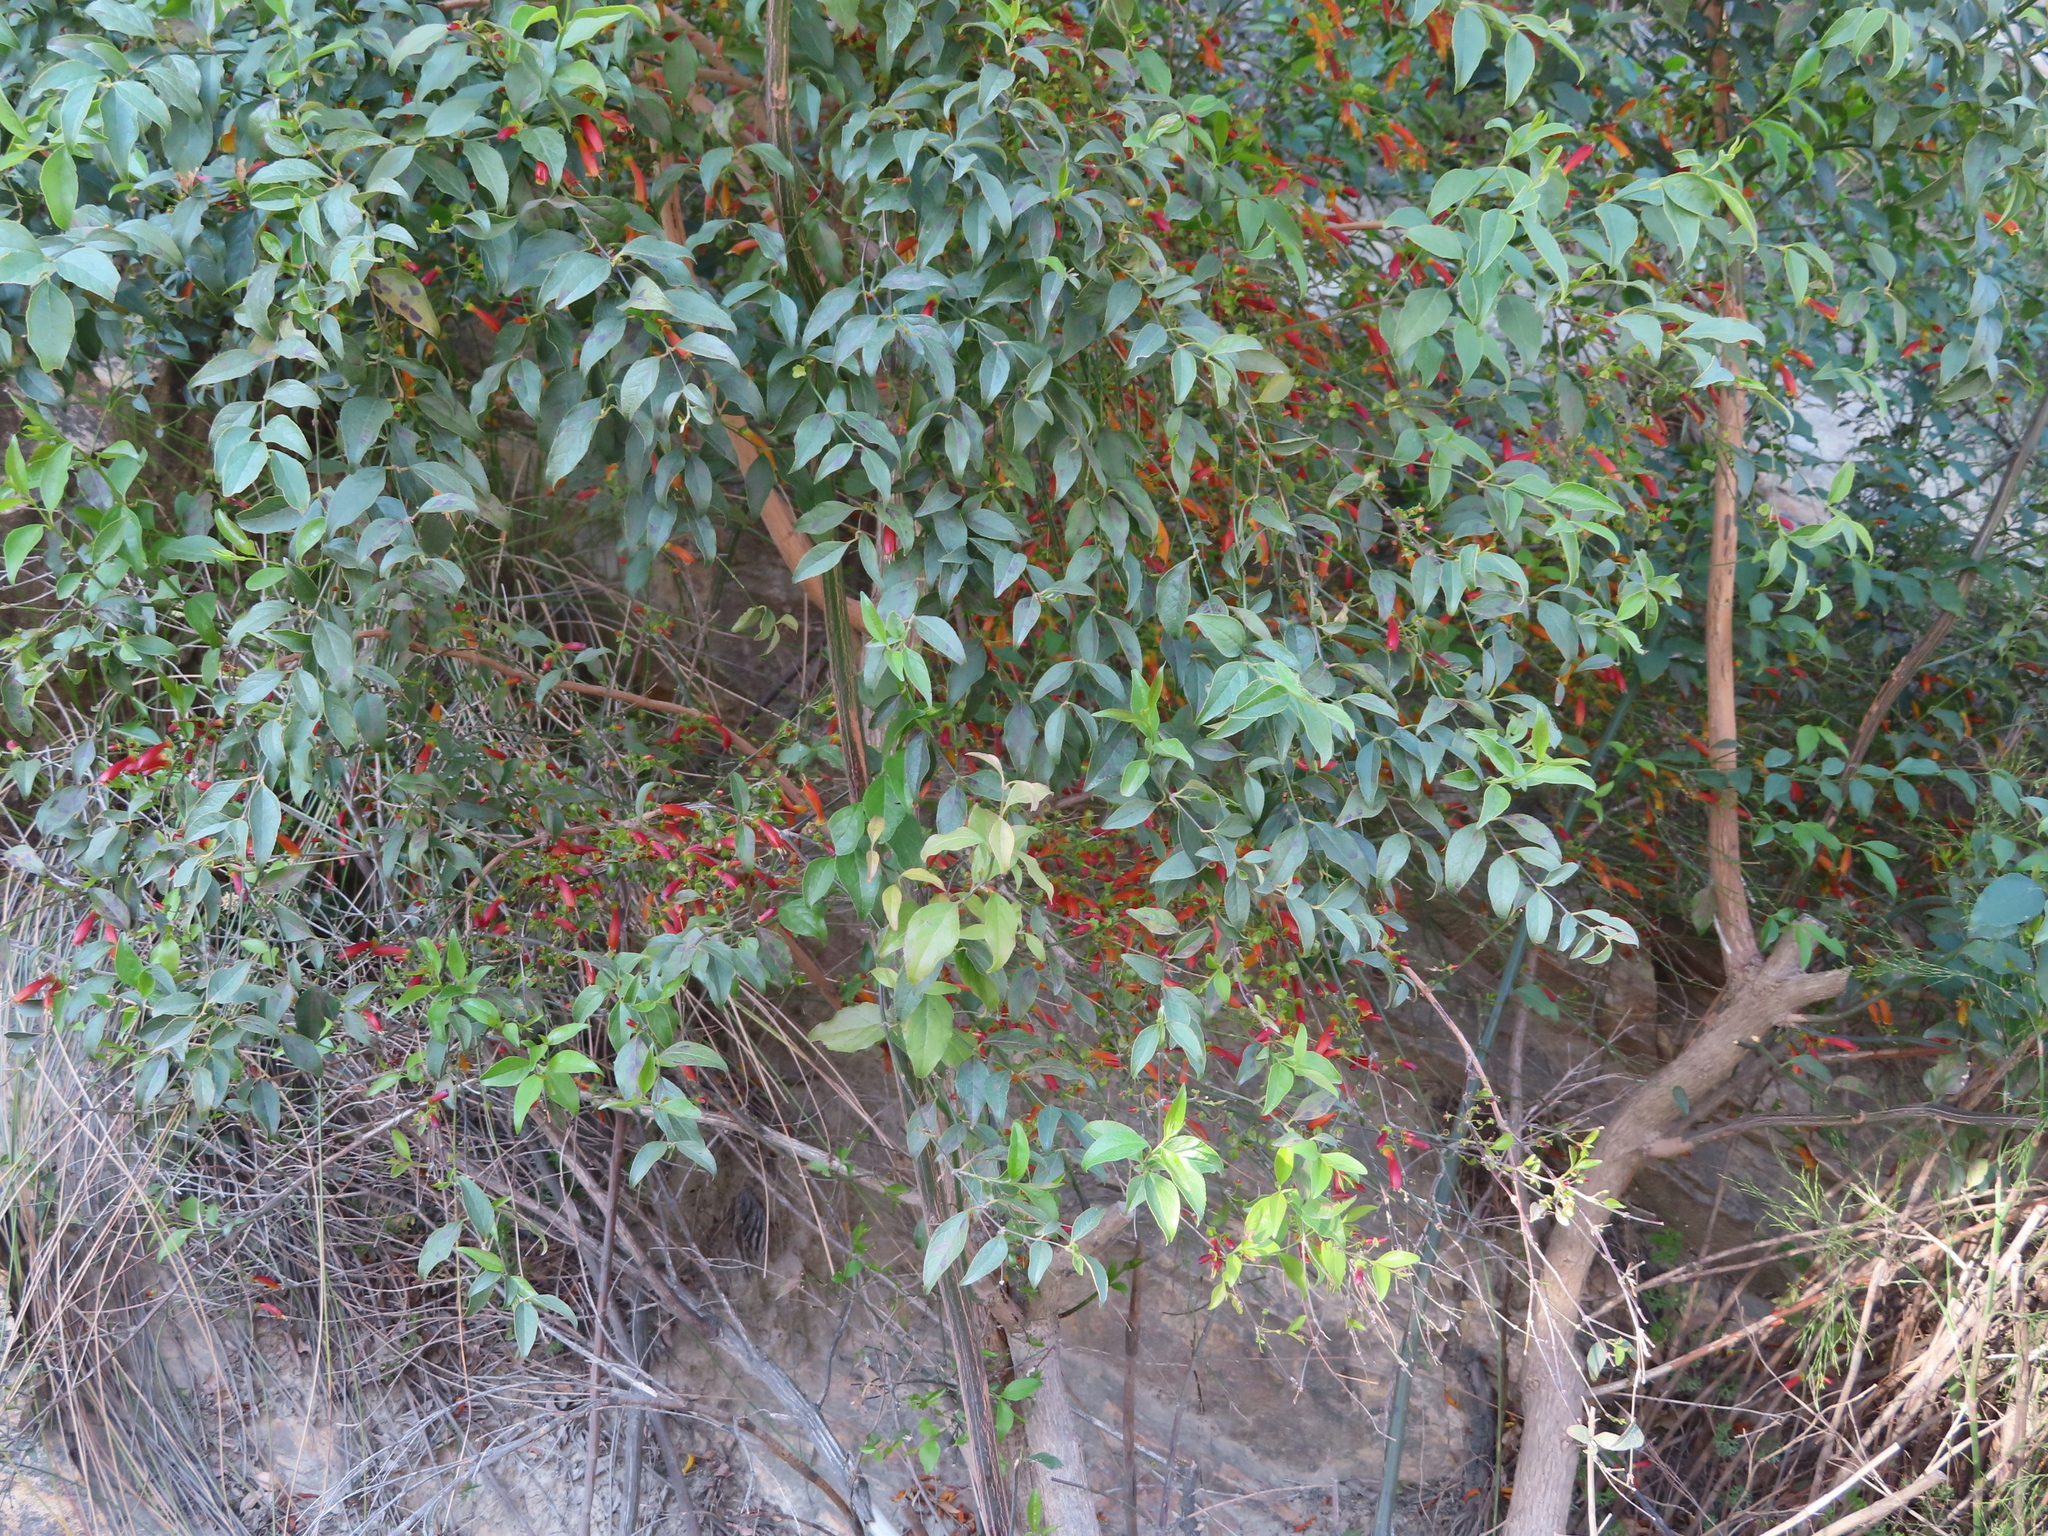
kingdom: Plantae
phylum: Tracheophyta
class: Magnoliopsida
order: Lamiales
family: Stilbaceae
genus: Halleria
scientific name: Halleria lucida
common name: Tree fuschia
